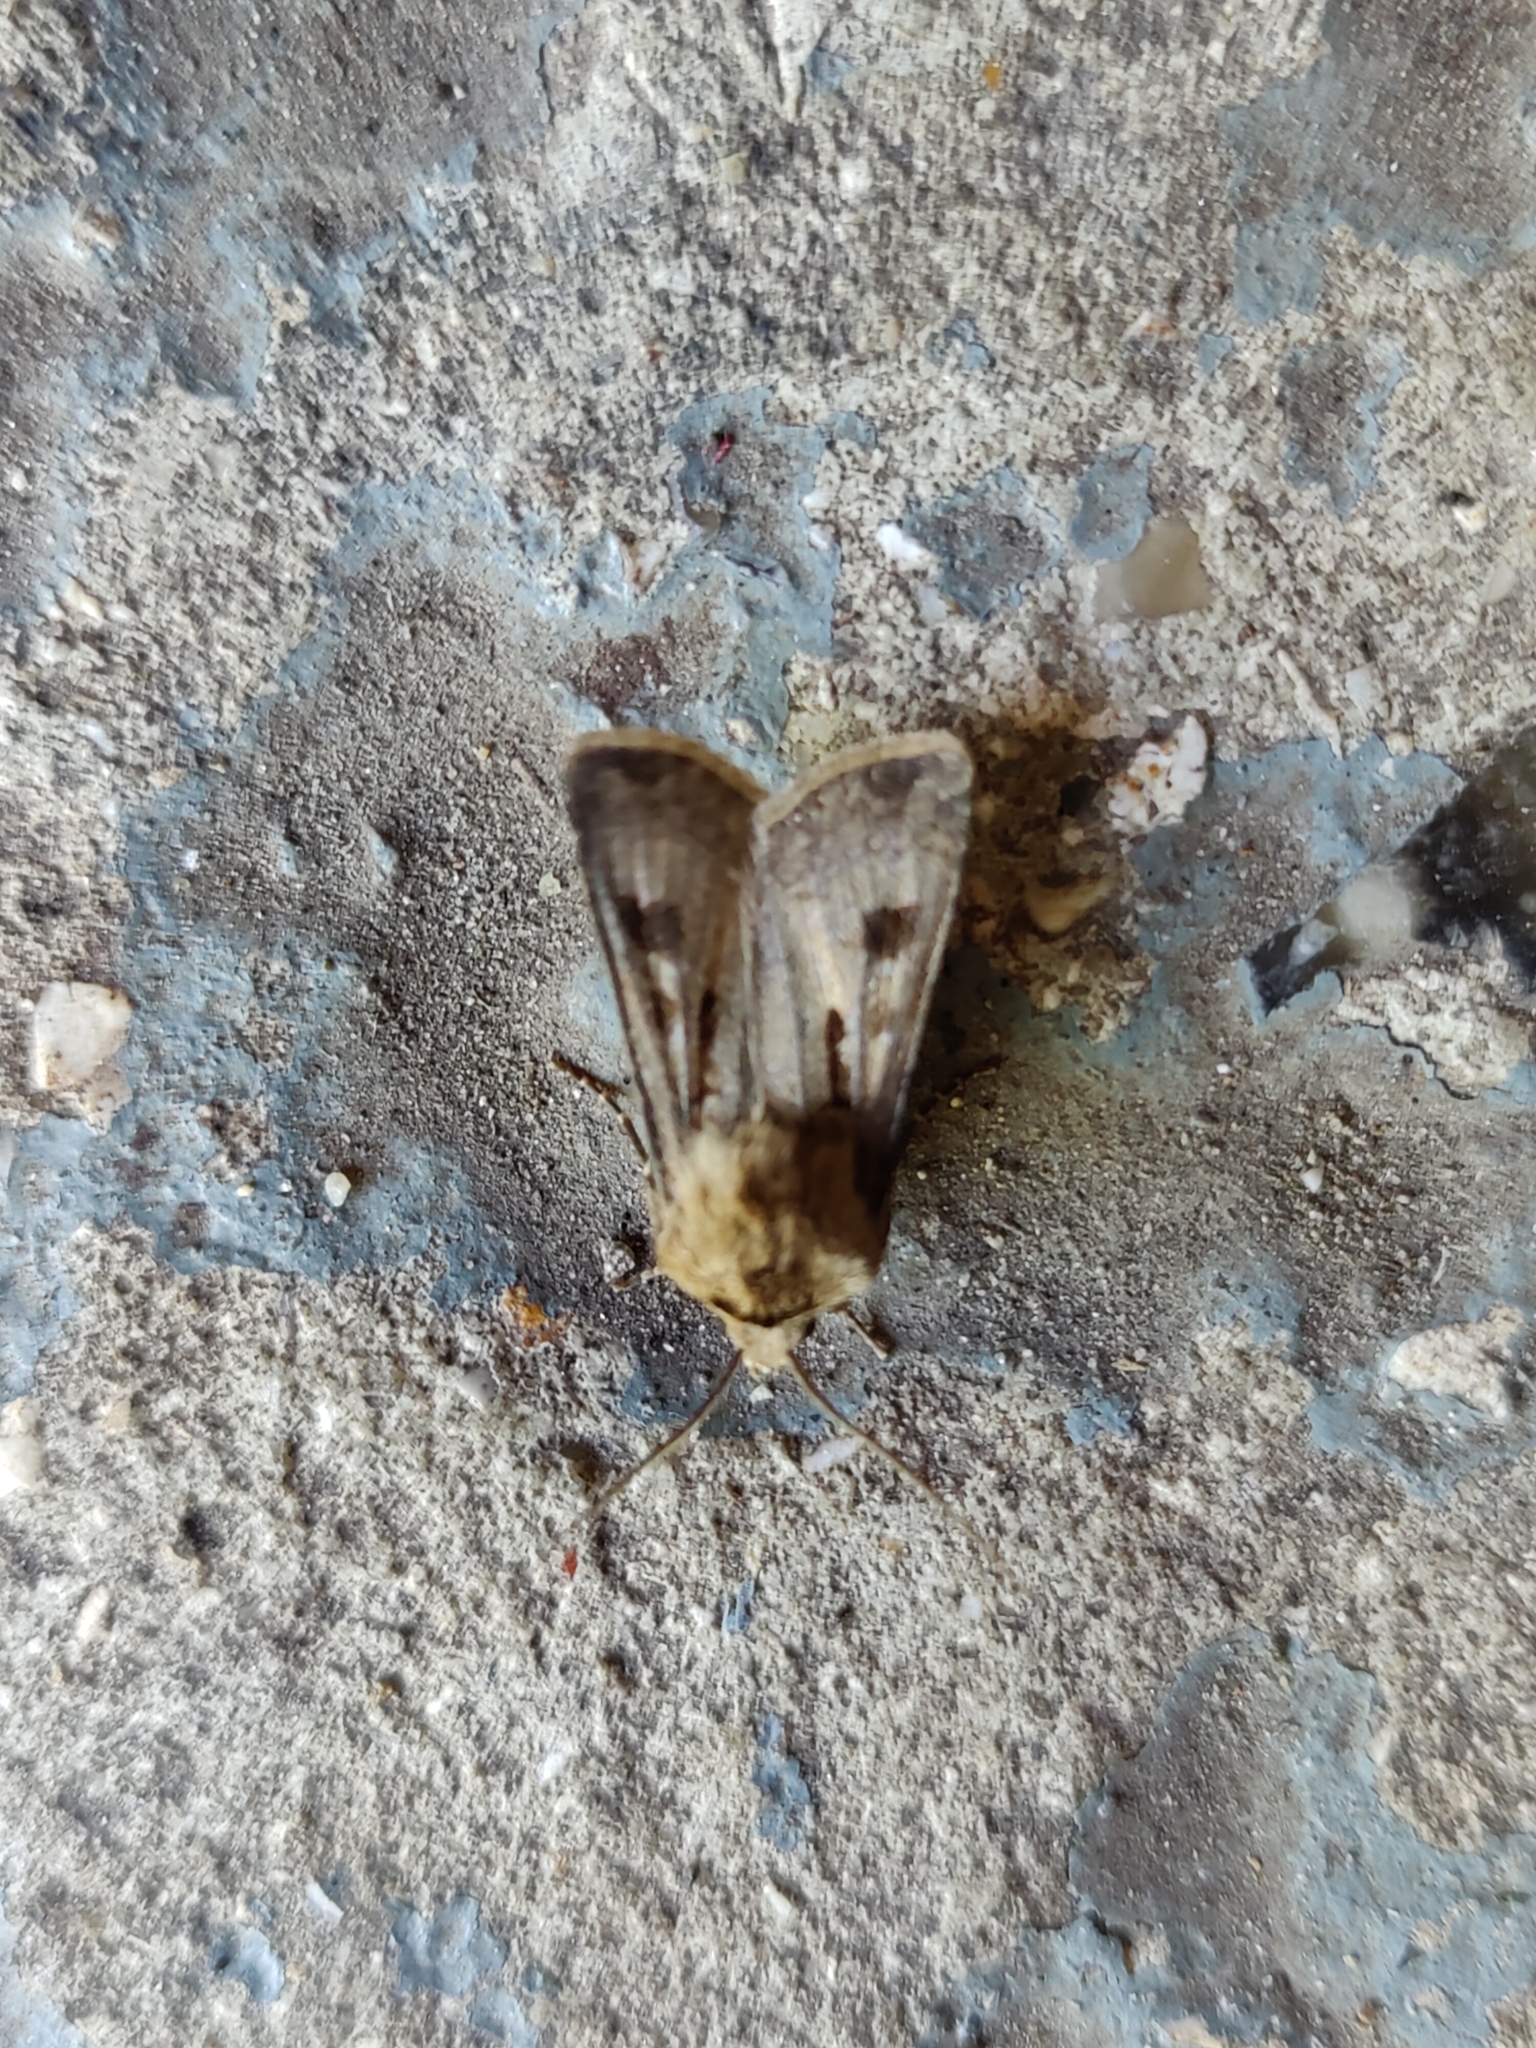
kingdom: Animalia
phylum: Arthropoda
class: Insecta
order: Lepidoptera
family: Noctuidae
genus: Agrotis
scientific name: Agrotis exclamationis
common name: Heart and dart
